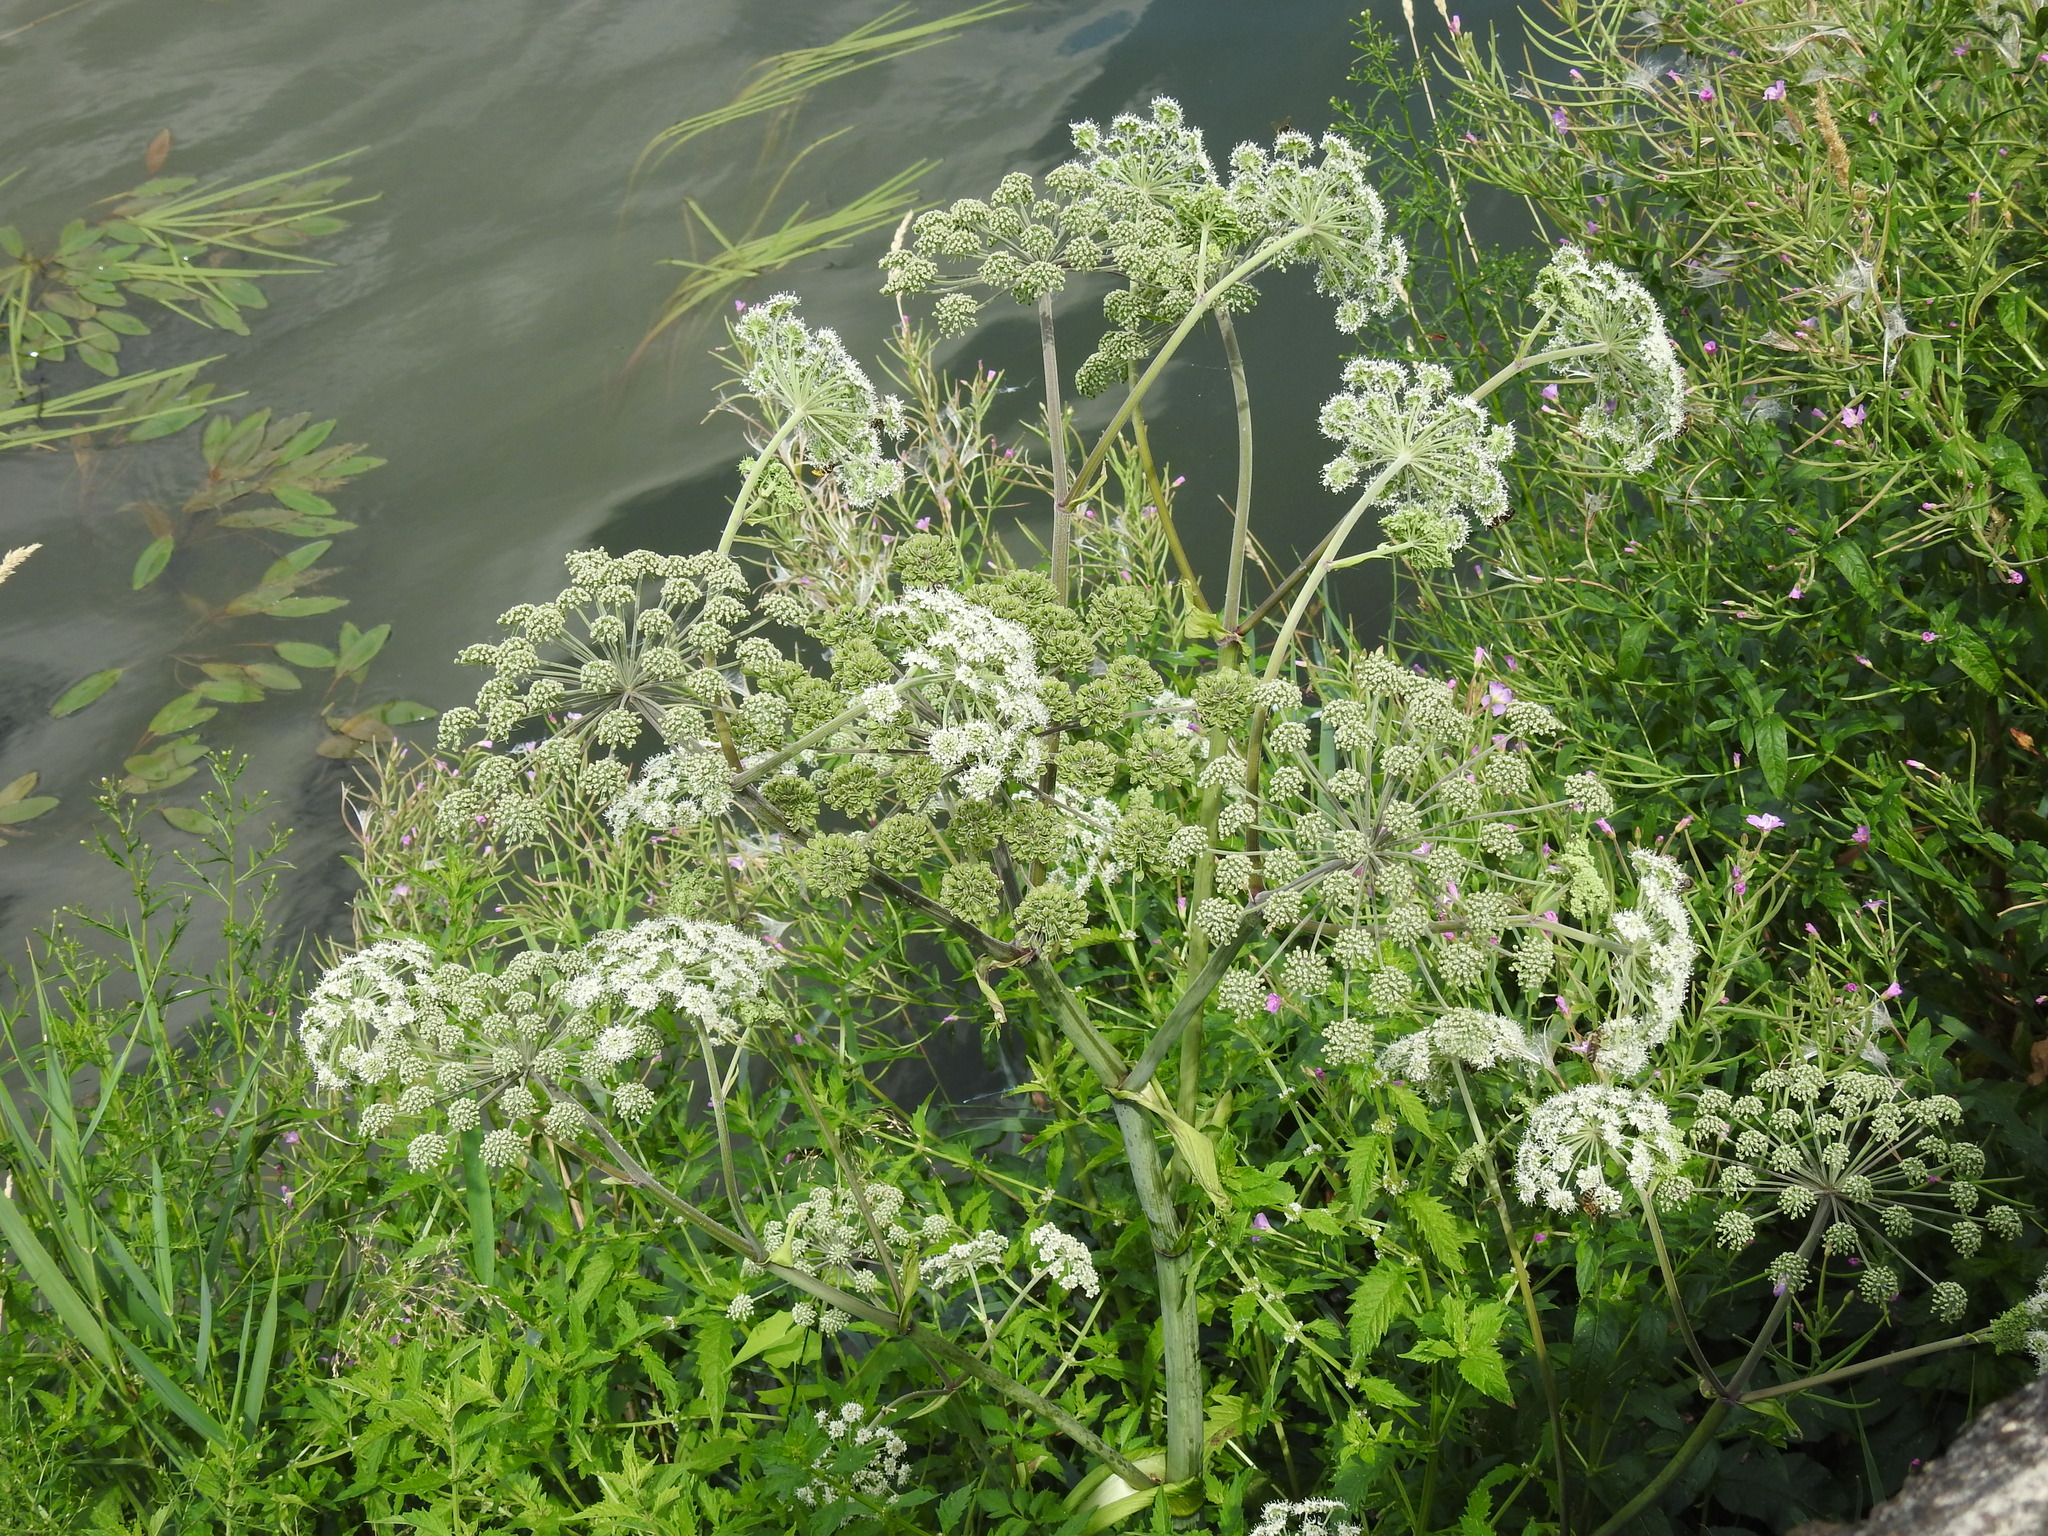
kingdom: Plantae
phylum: Tracheophyta
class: Magnoliopsida
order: Apiales
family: Apiaceae
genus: Angelica
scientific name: Angelica sylvestris
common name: Wild angelica
